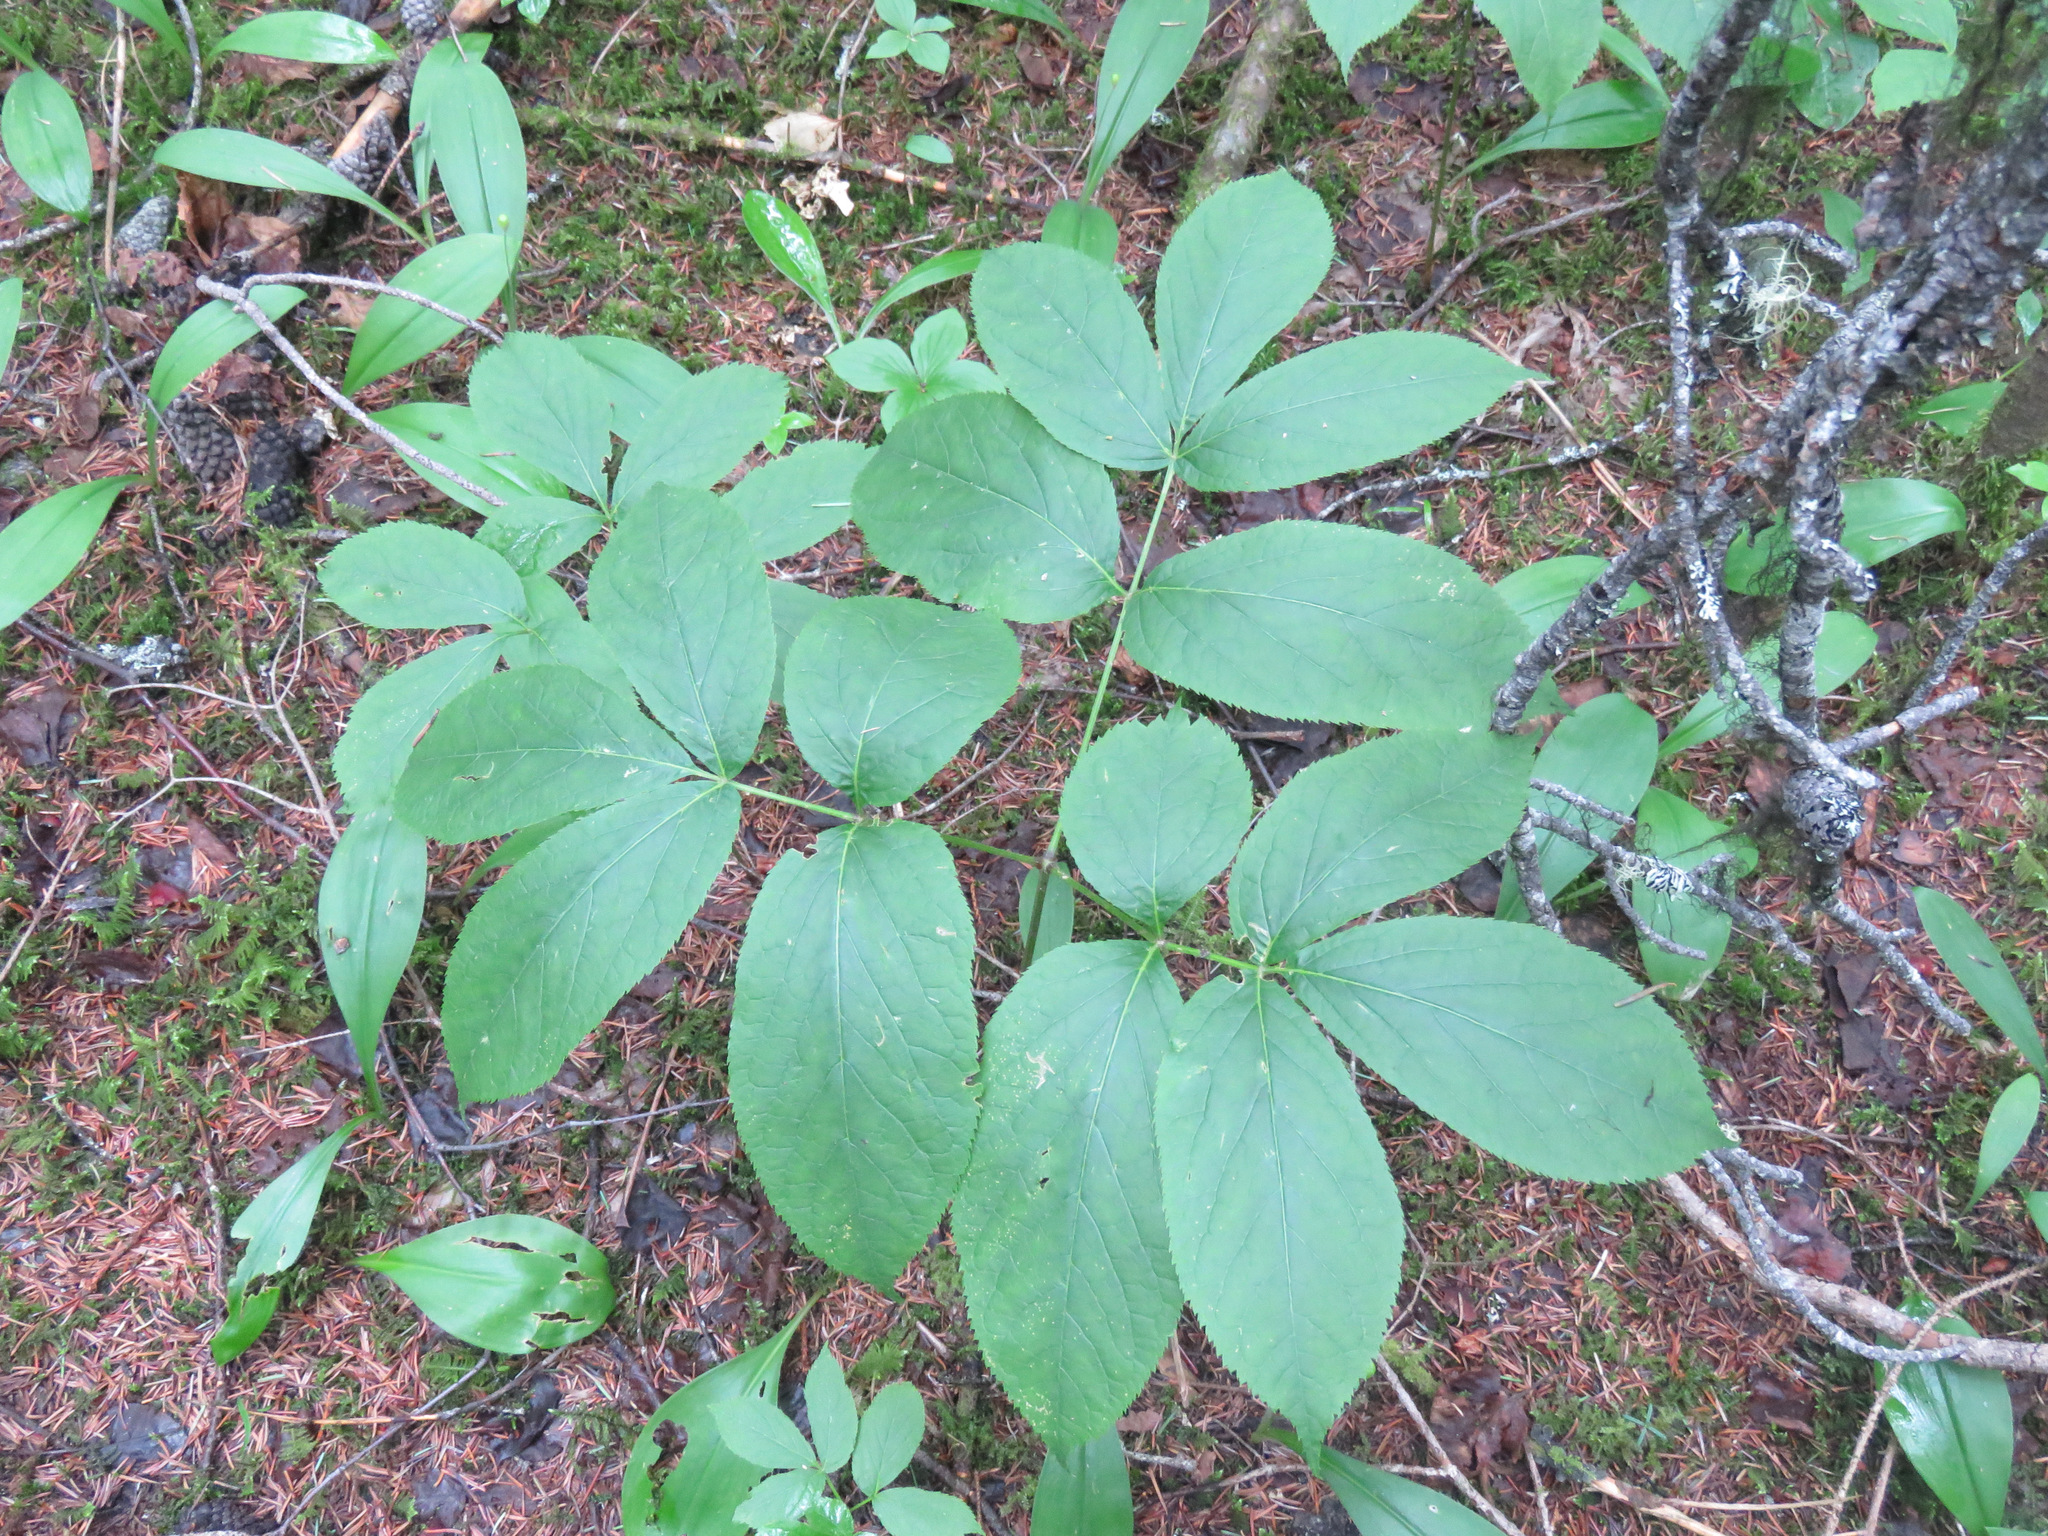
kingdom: Plantae
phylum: Tracheophyta
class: Magnoliopsida
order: Apiales
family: Araliaceae
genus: Aralia
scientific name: Aralia nudicaulis
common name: Wild sarsaparilla
